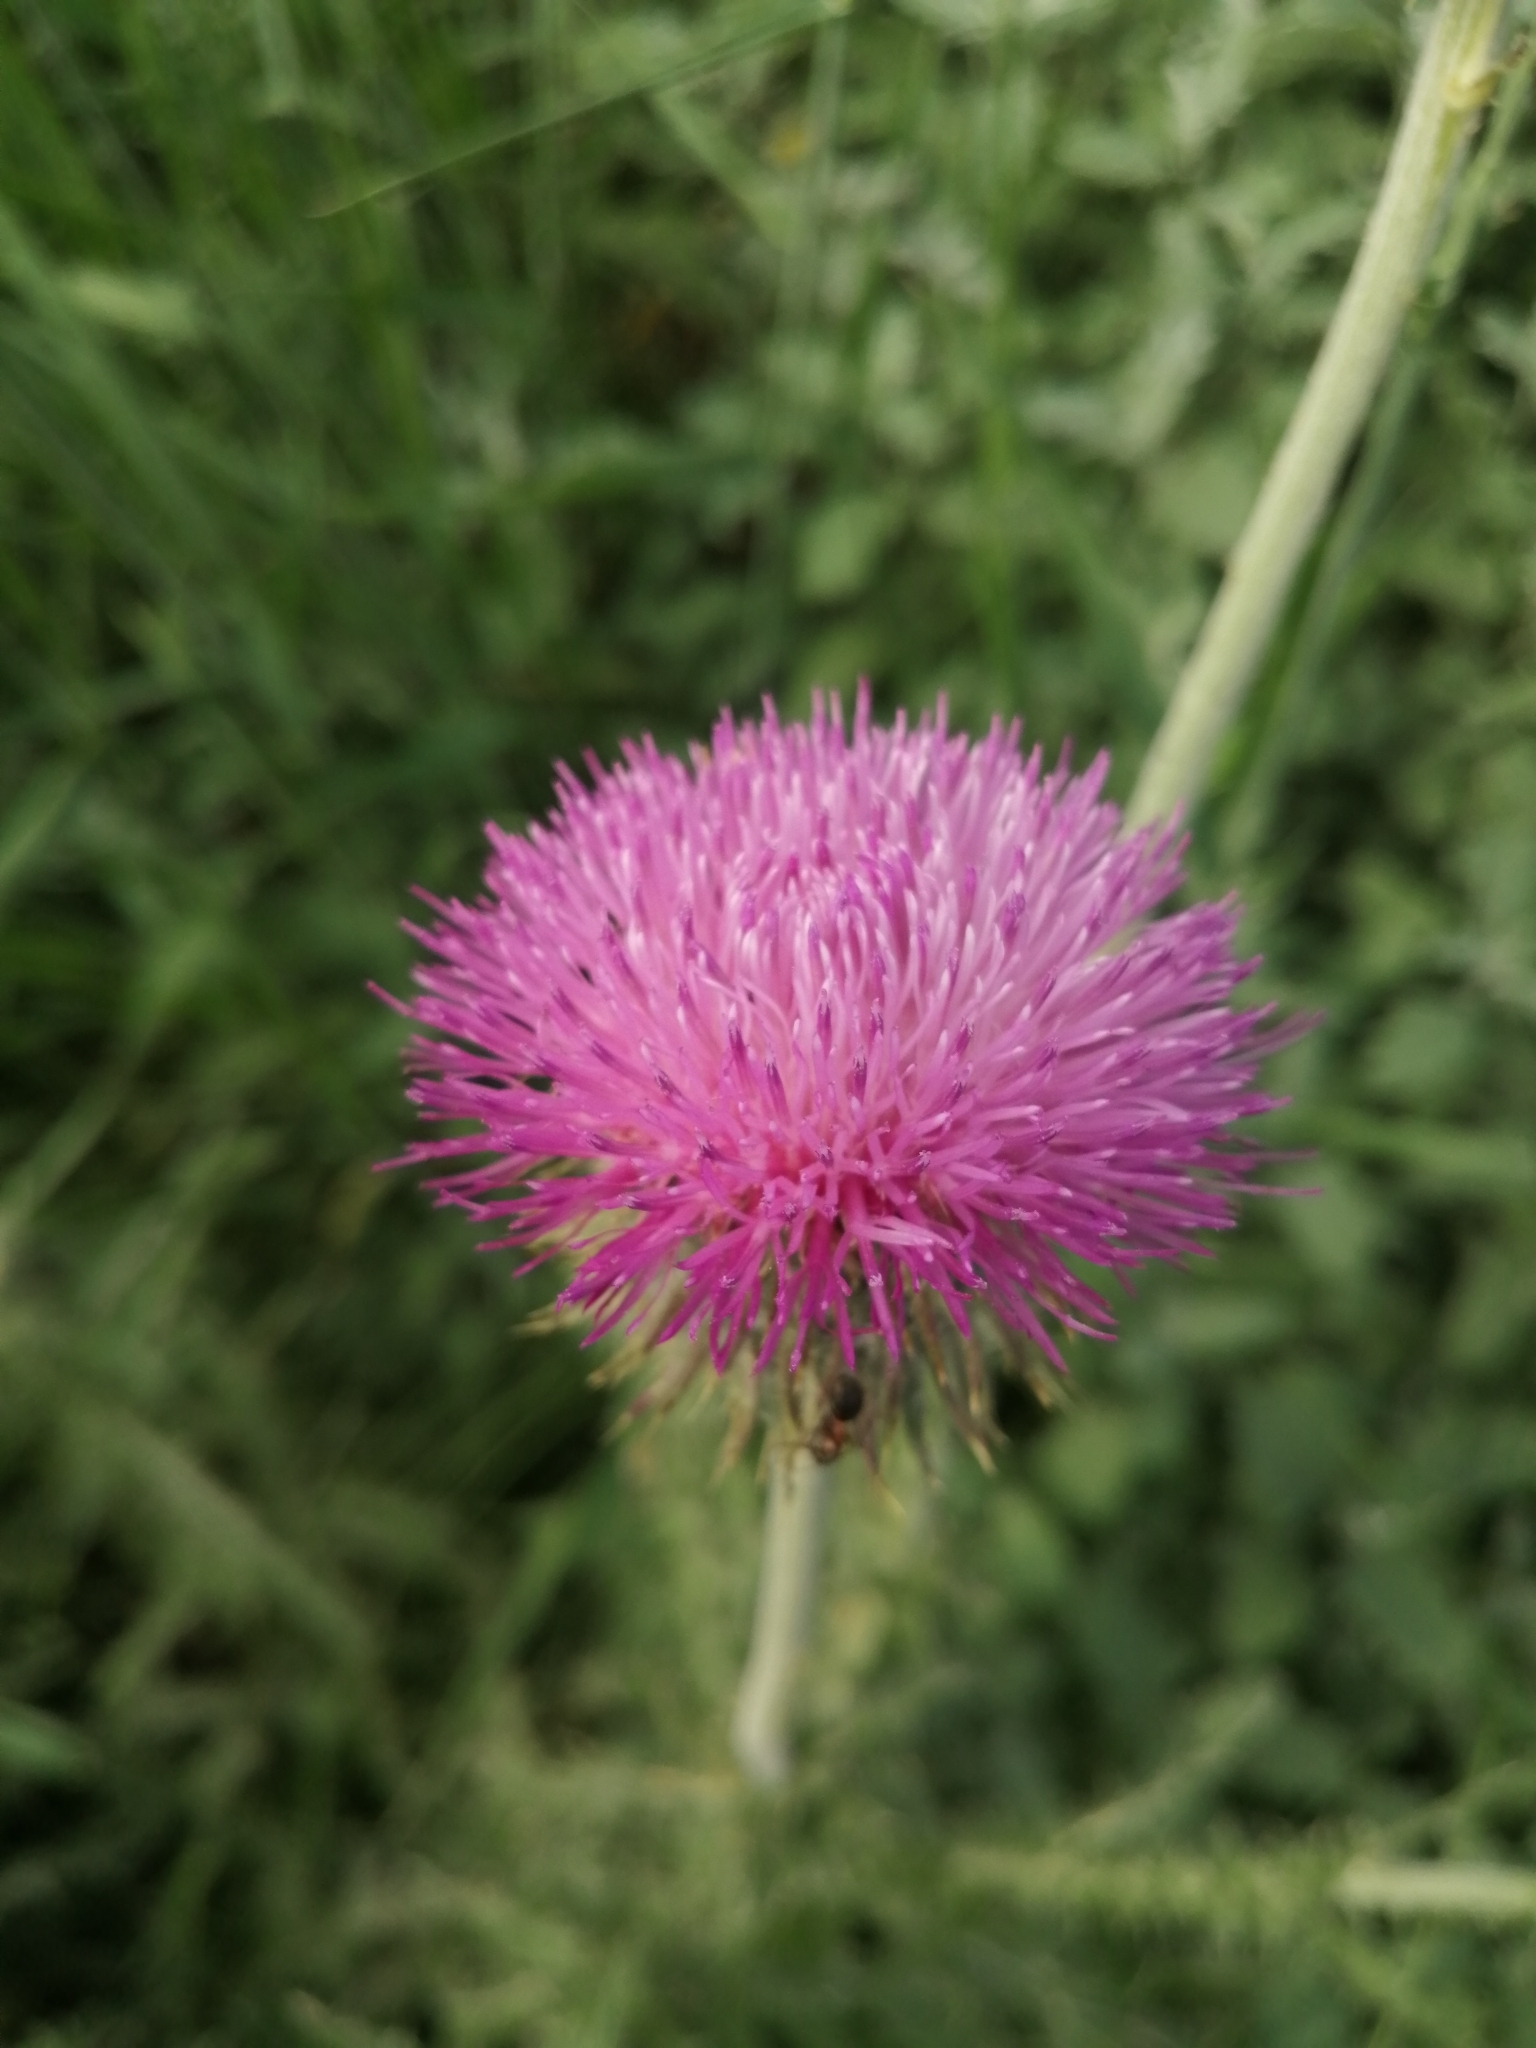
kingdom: Plantae
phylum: Tracheophyta
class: Magnoliopsida
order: Asterales
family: Asteraceae
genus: Carduus
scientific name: Carduus uncinatus
